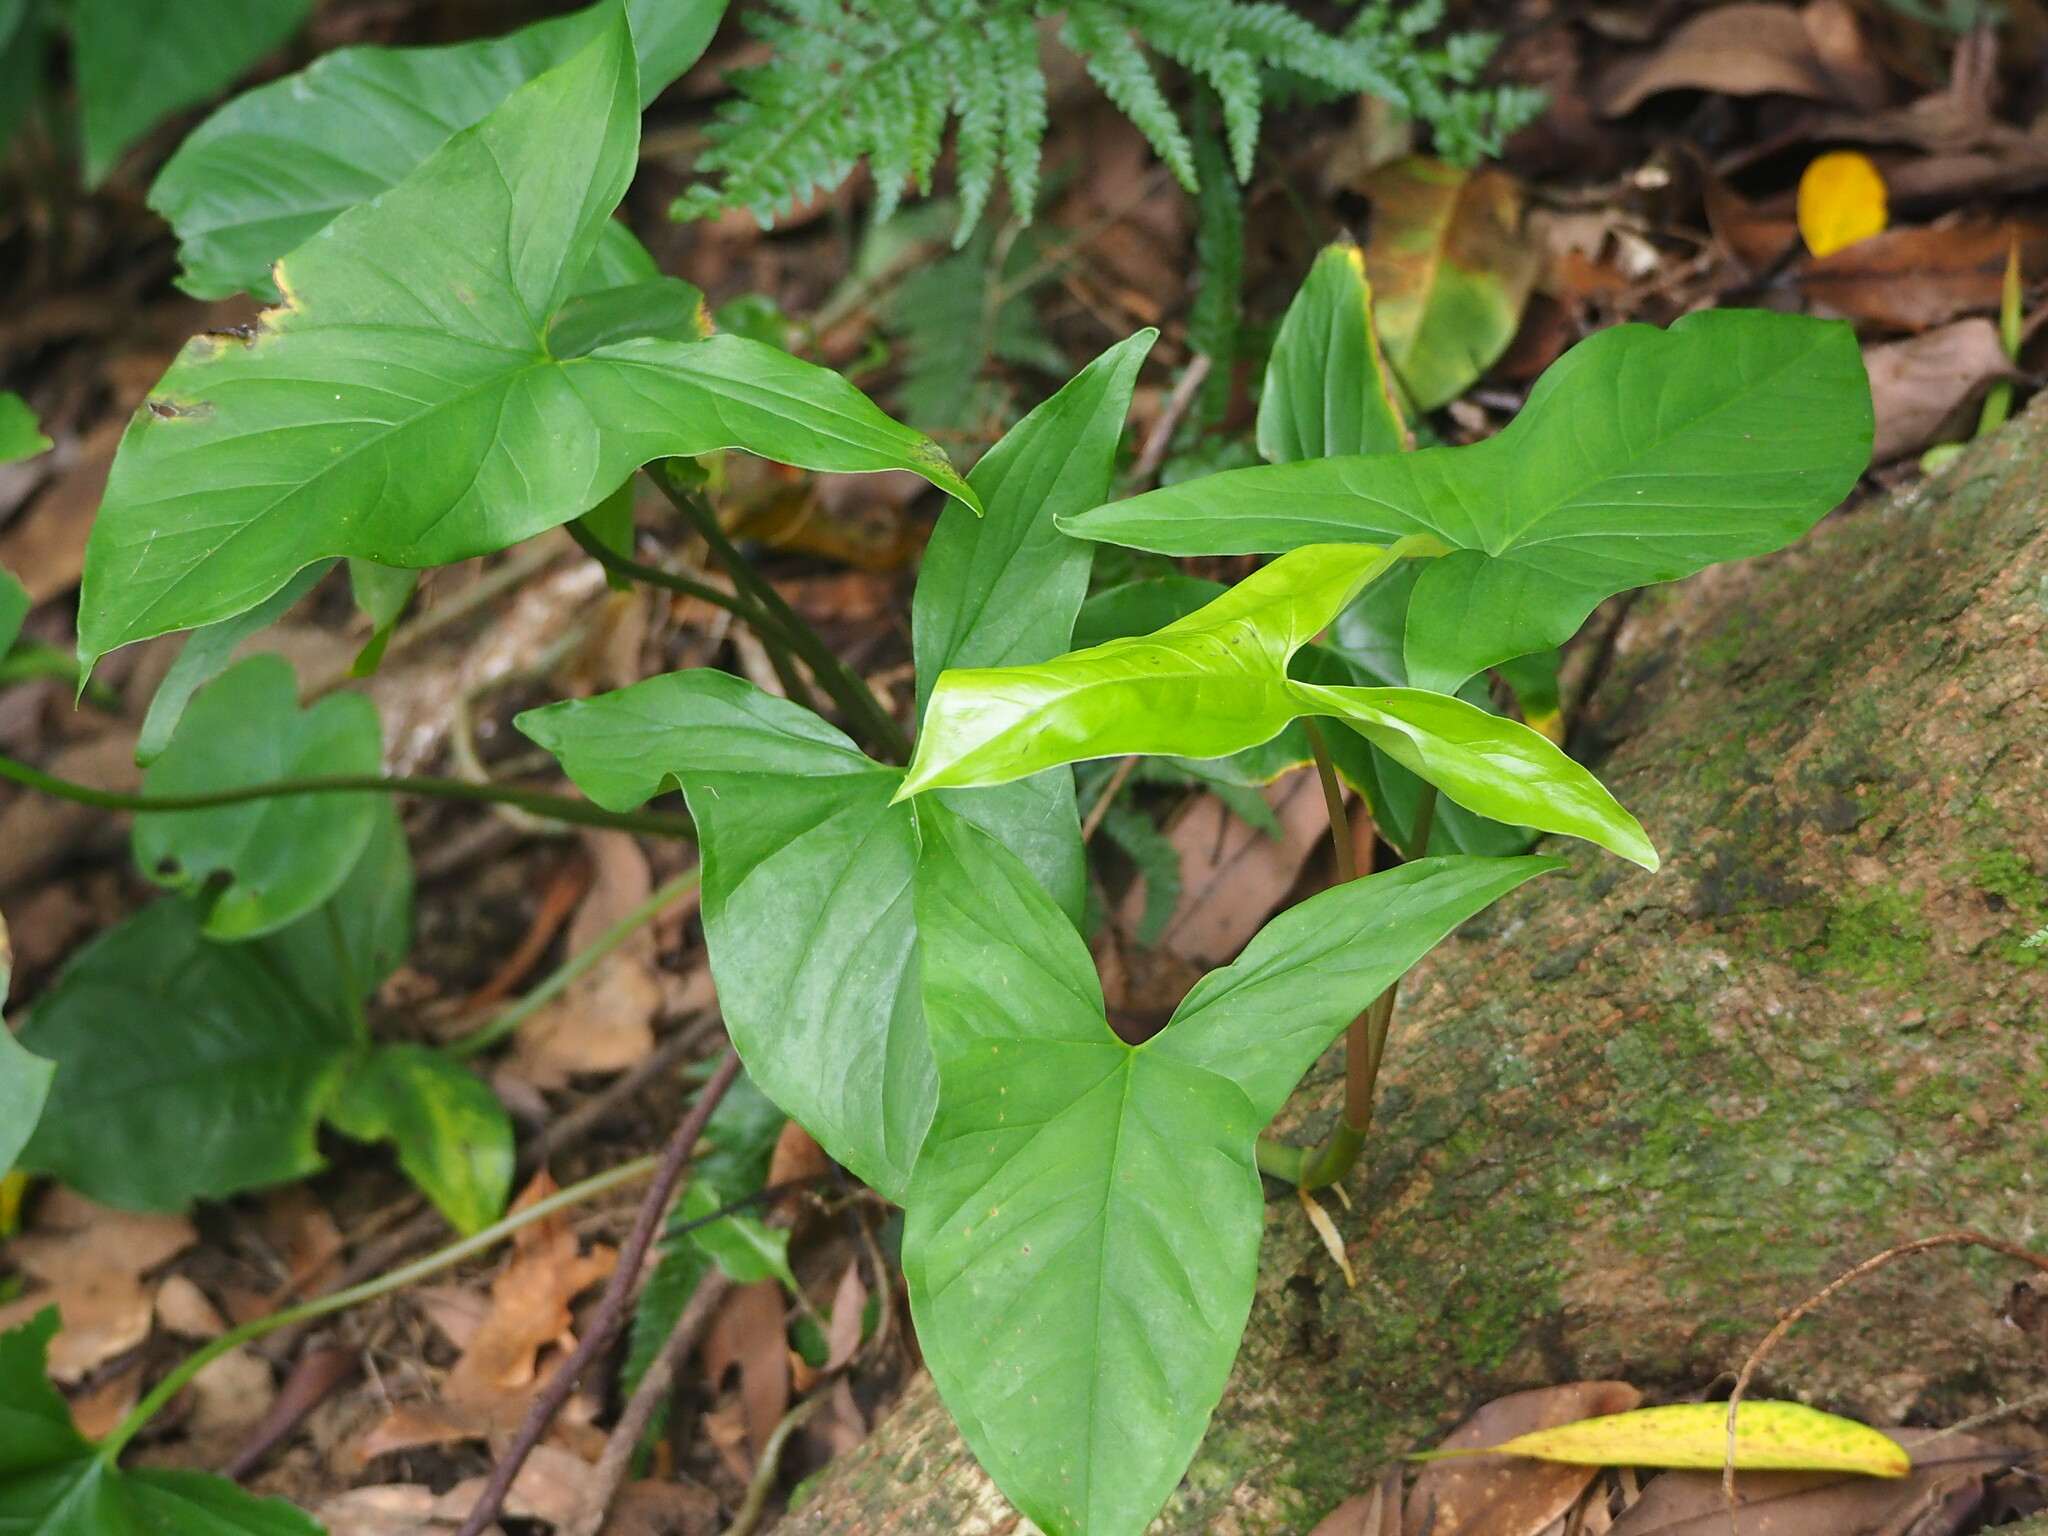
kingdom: Plantae
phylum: Tracheophyta
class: Liliopsida
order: Alismatales
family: Araceae
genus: Syngonium
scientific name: Syngonium angustatum
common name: Fivefingers
